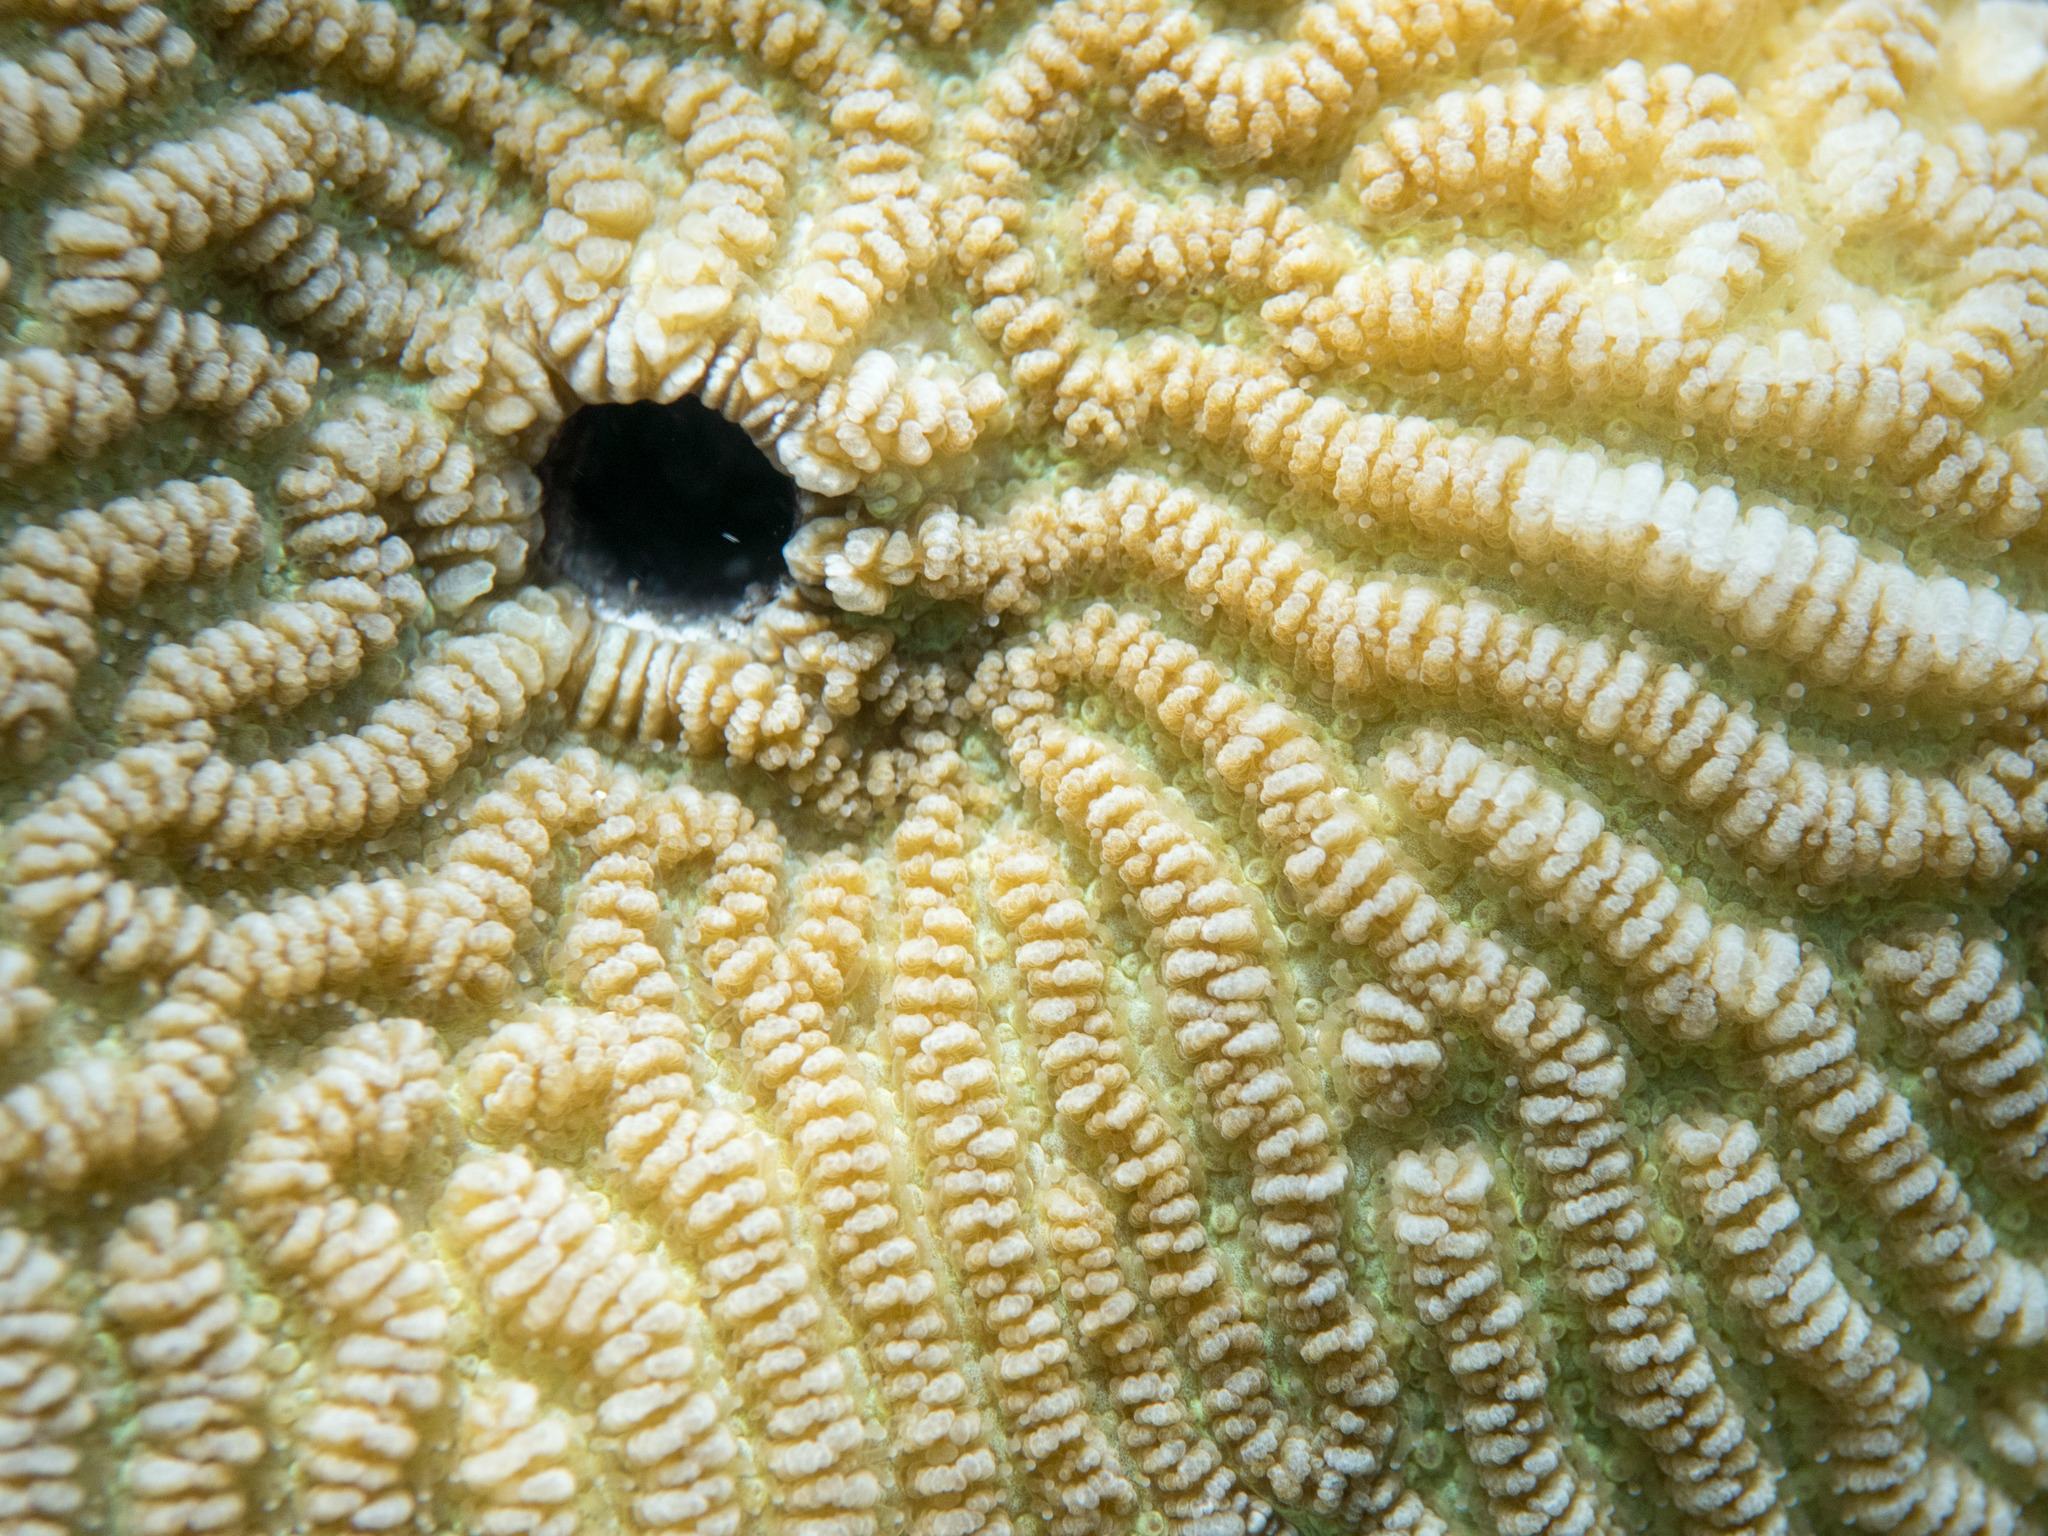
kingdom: Animalia
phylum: Cnidaria
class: Anthozoa
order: Scleractinia
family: Merulinidae
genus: Leptoria
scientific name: Leptoria phrygia
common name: Least valley coral
